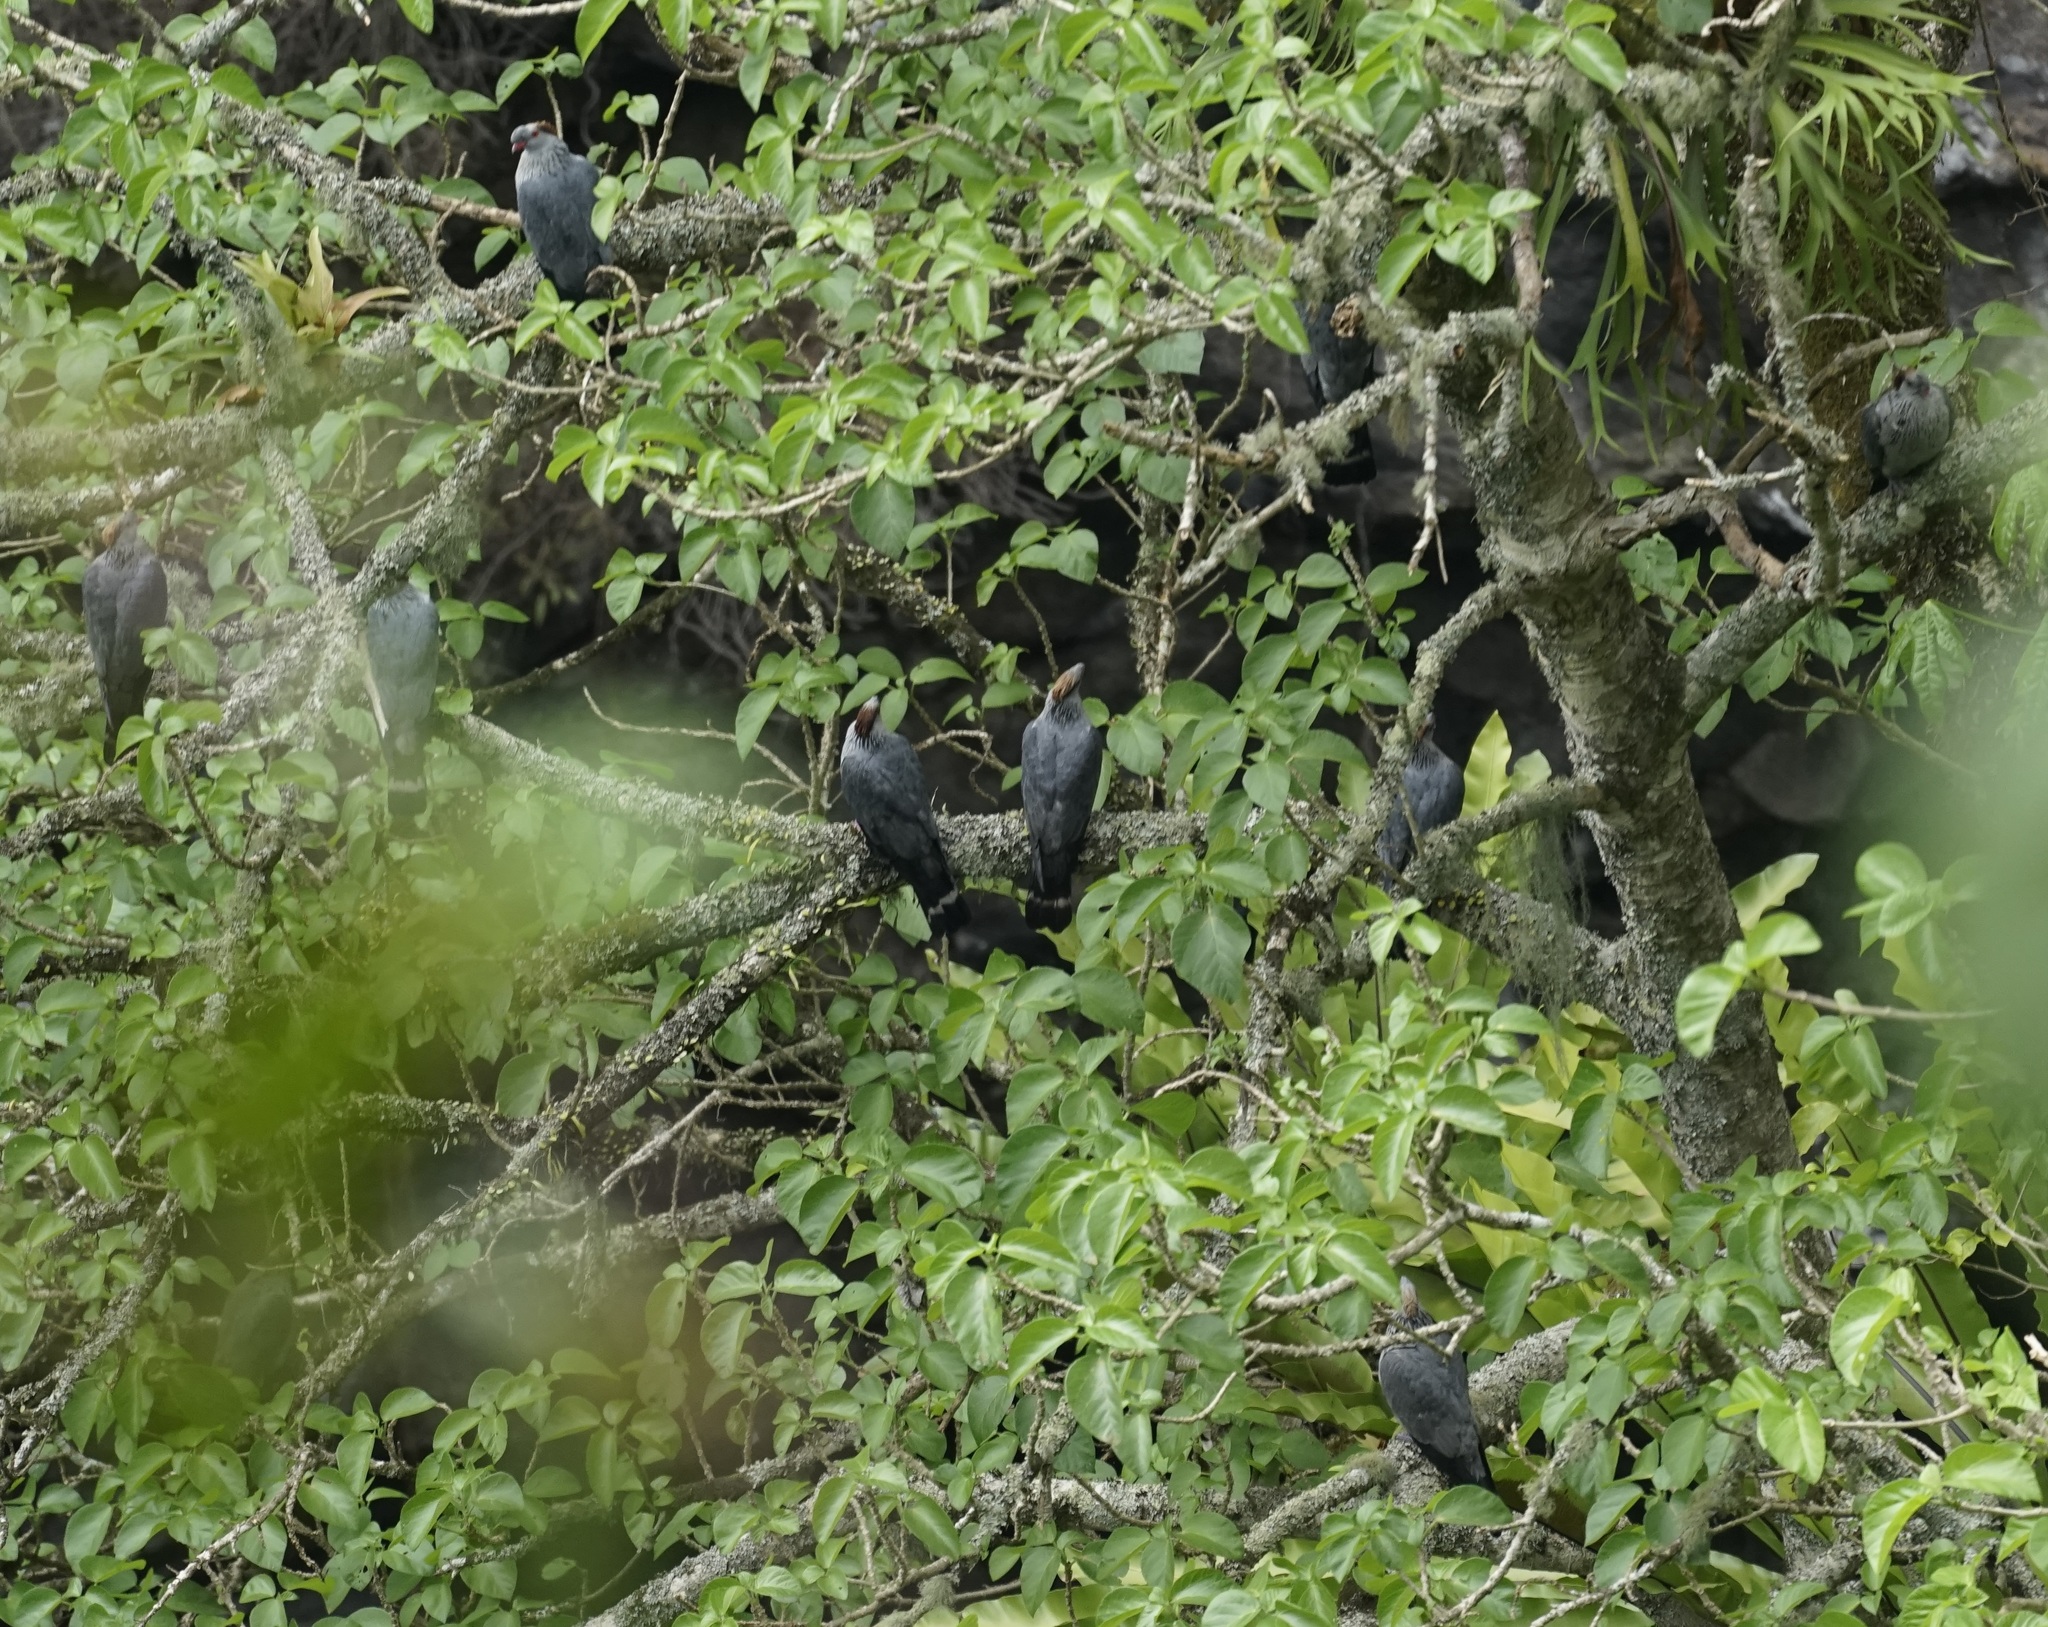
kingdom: Animalia
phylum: Chordata
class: Aves
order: Columbiformes
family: Columbidae
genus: Lopholaimus
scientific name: Lopholaimus antarcticus
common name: Topknot pigeon
